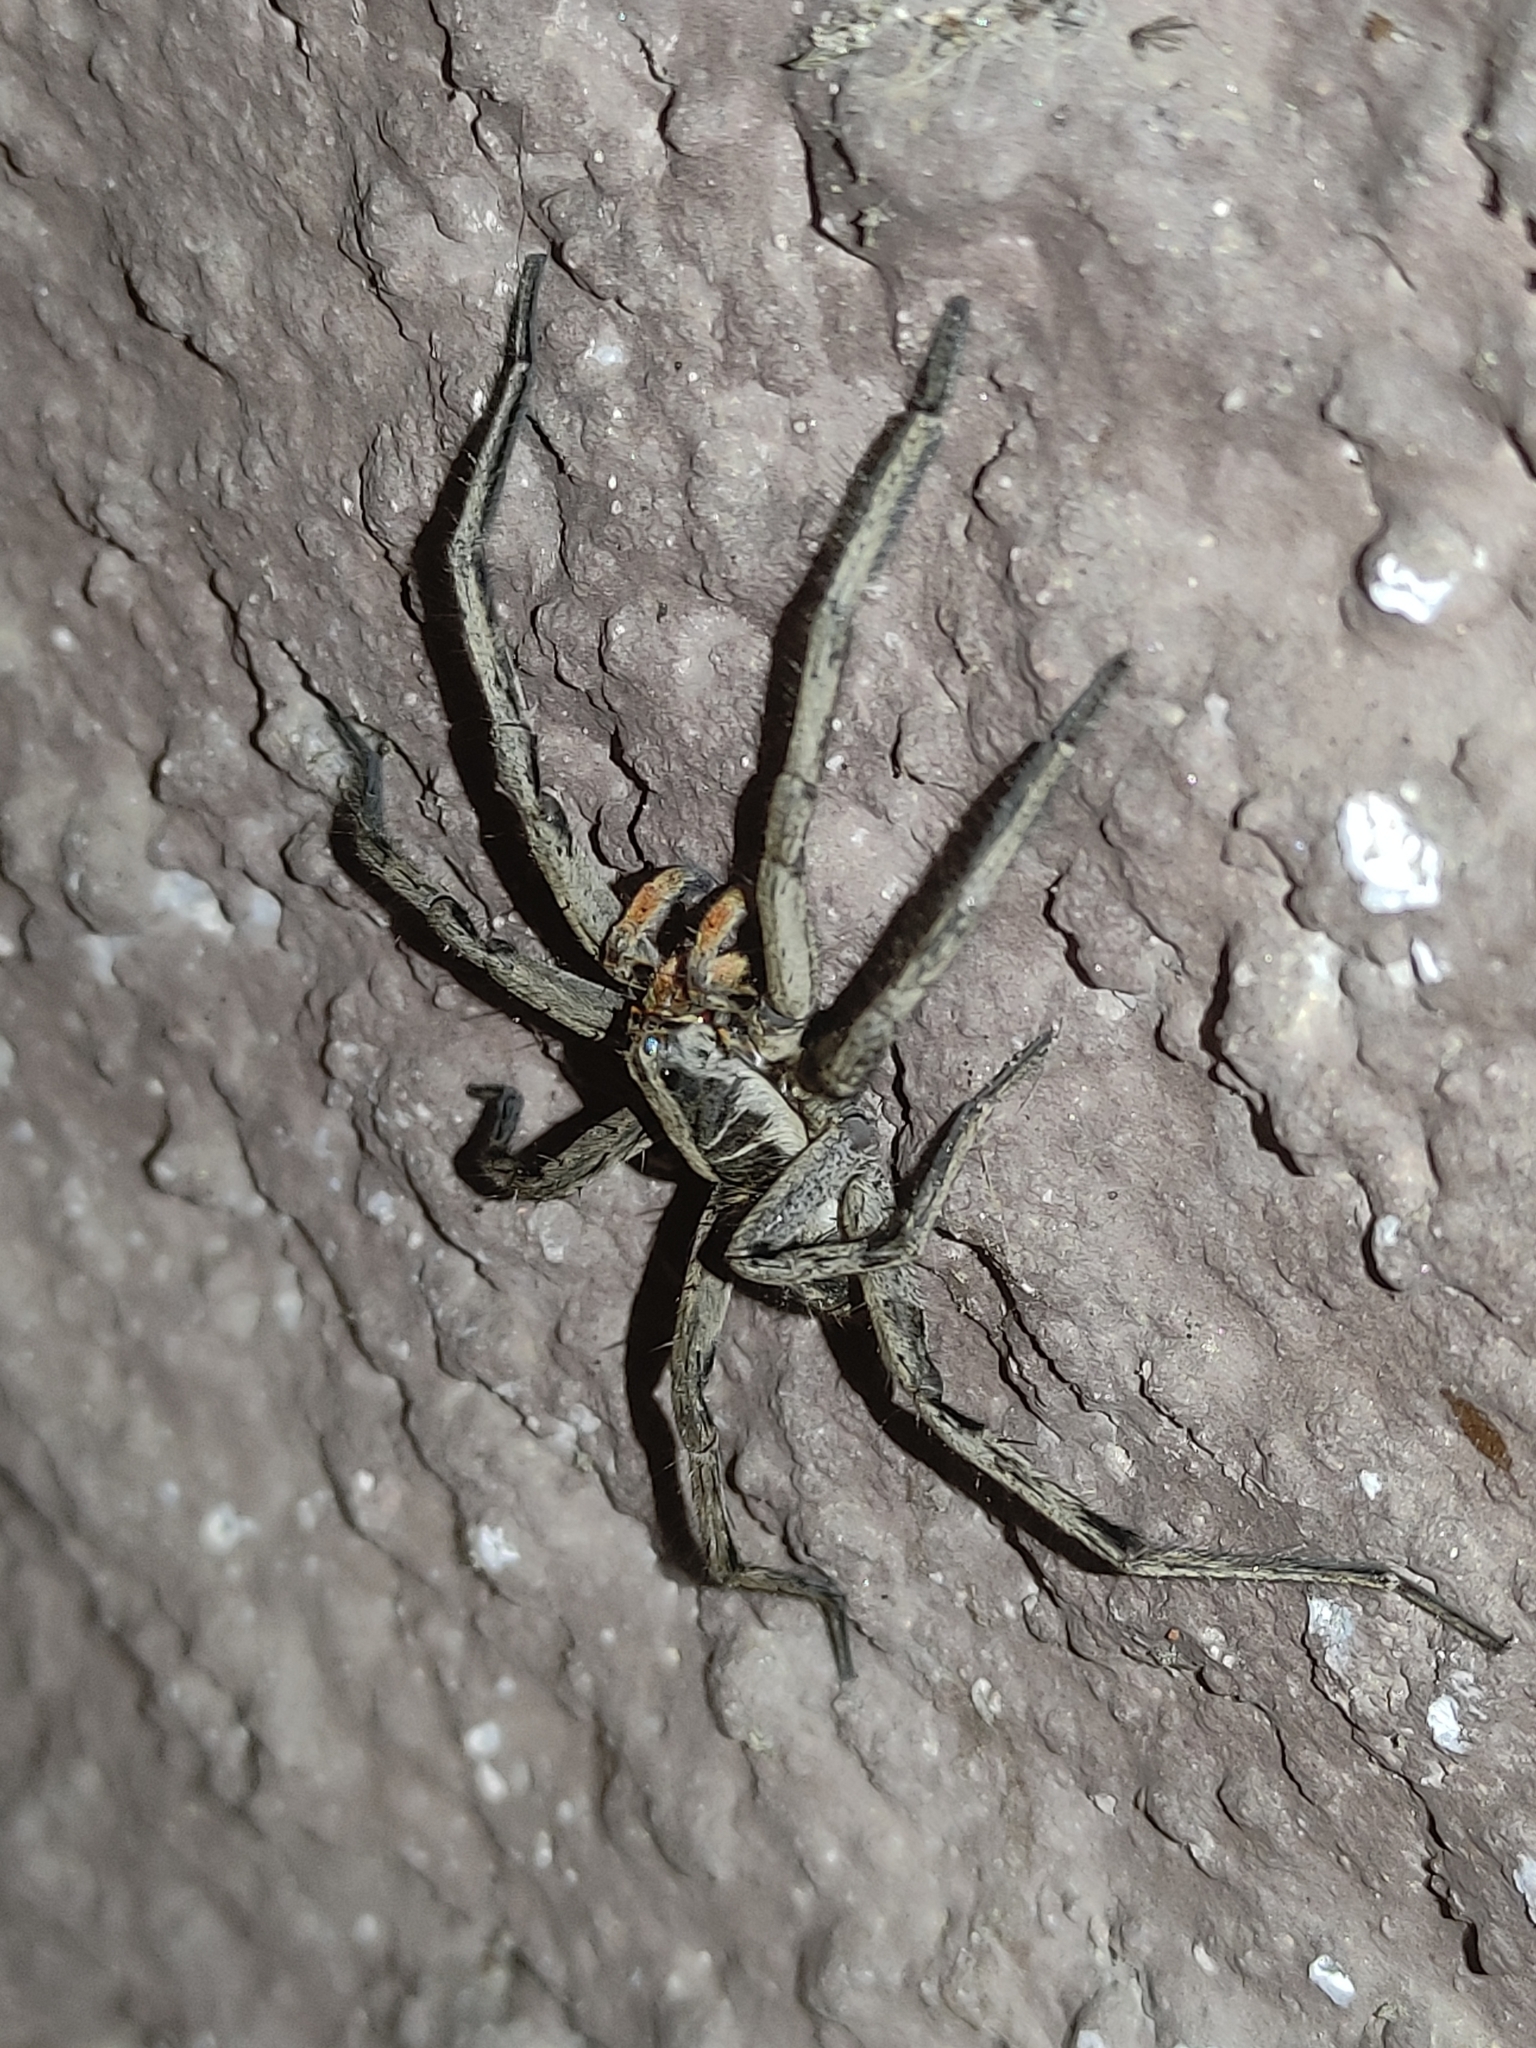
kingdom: Animalia
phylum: Arthropoda
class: Arachnida
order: Araneae
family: Lycosidae
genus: Lycosa
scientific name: Lycosa erythrognatha
